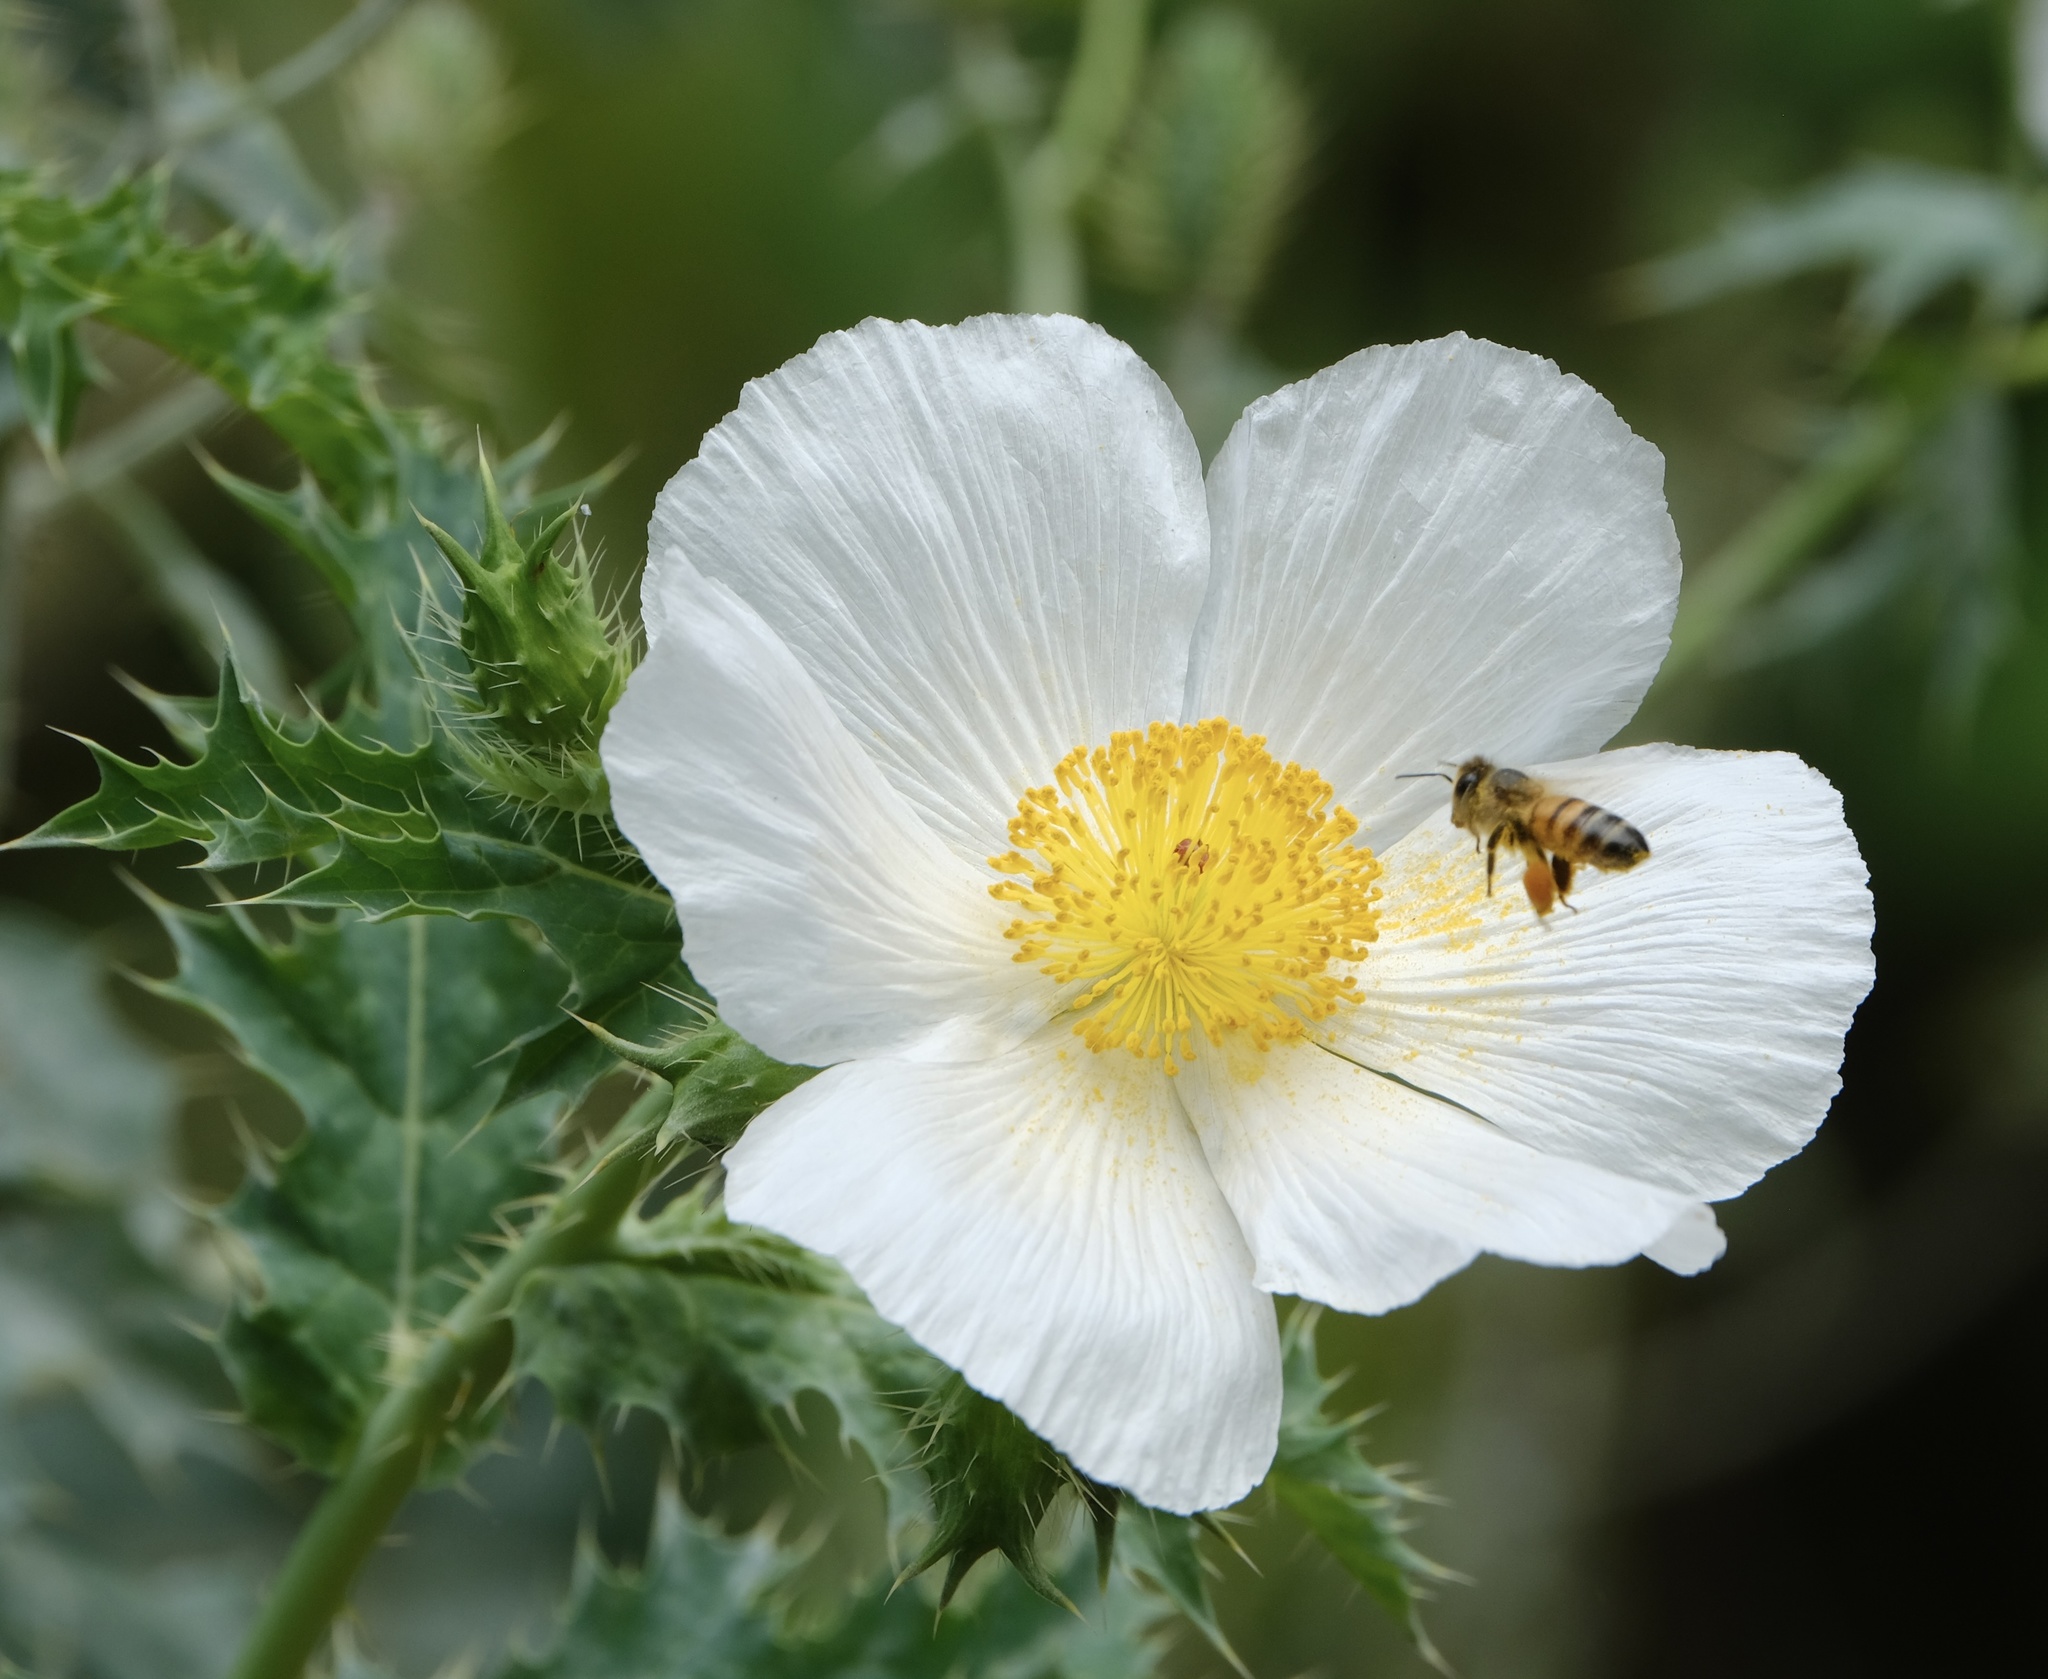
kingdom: Plantae
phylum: Tracheophyta
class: Magnoliopsida
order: Ranunculales
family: Papaveraceae
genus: Argemone
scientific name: Argemone albiflora
